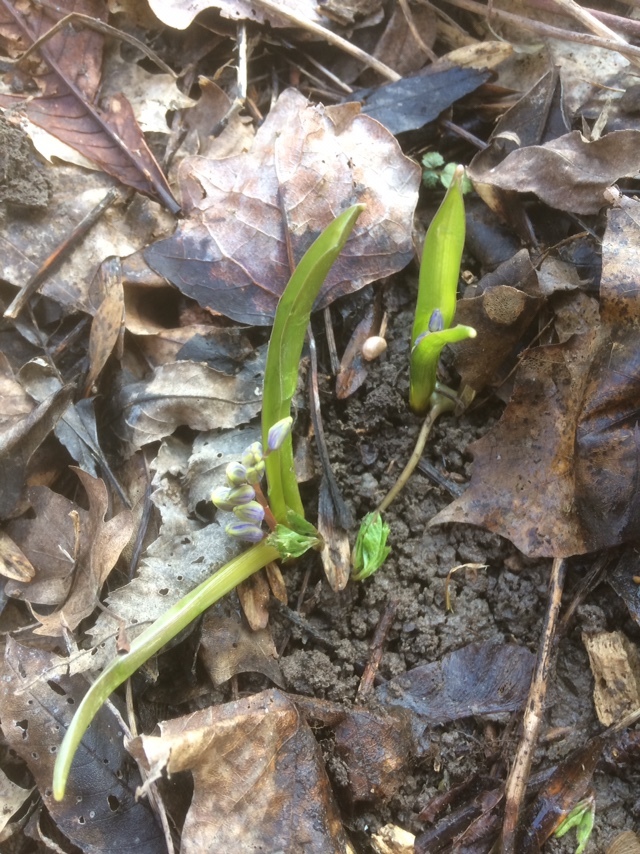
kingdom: Plantae
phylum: Tracheophyta
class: Liliopsida
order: Asparagales
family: Asparagaceae
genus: Scilla
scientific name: Scilla vindobonensis
